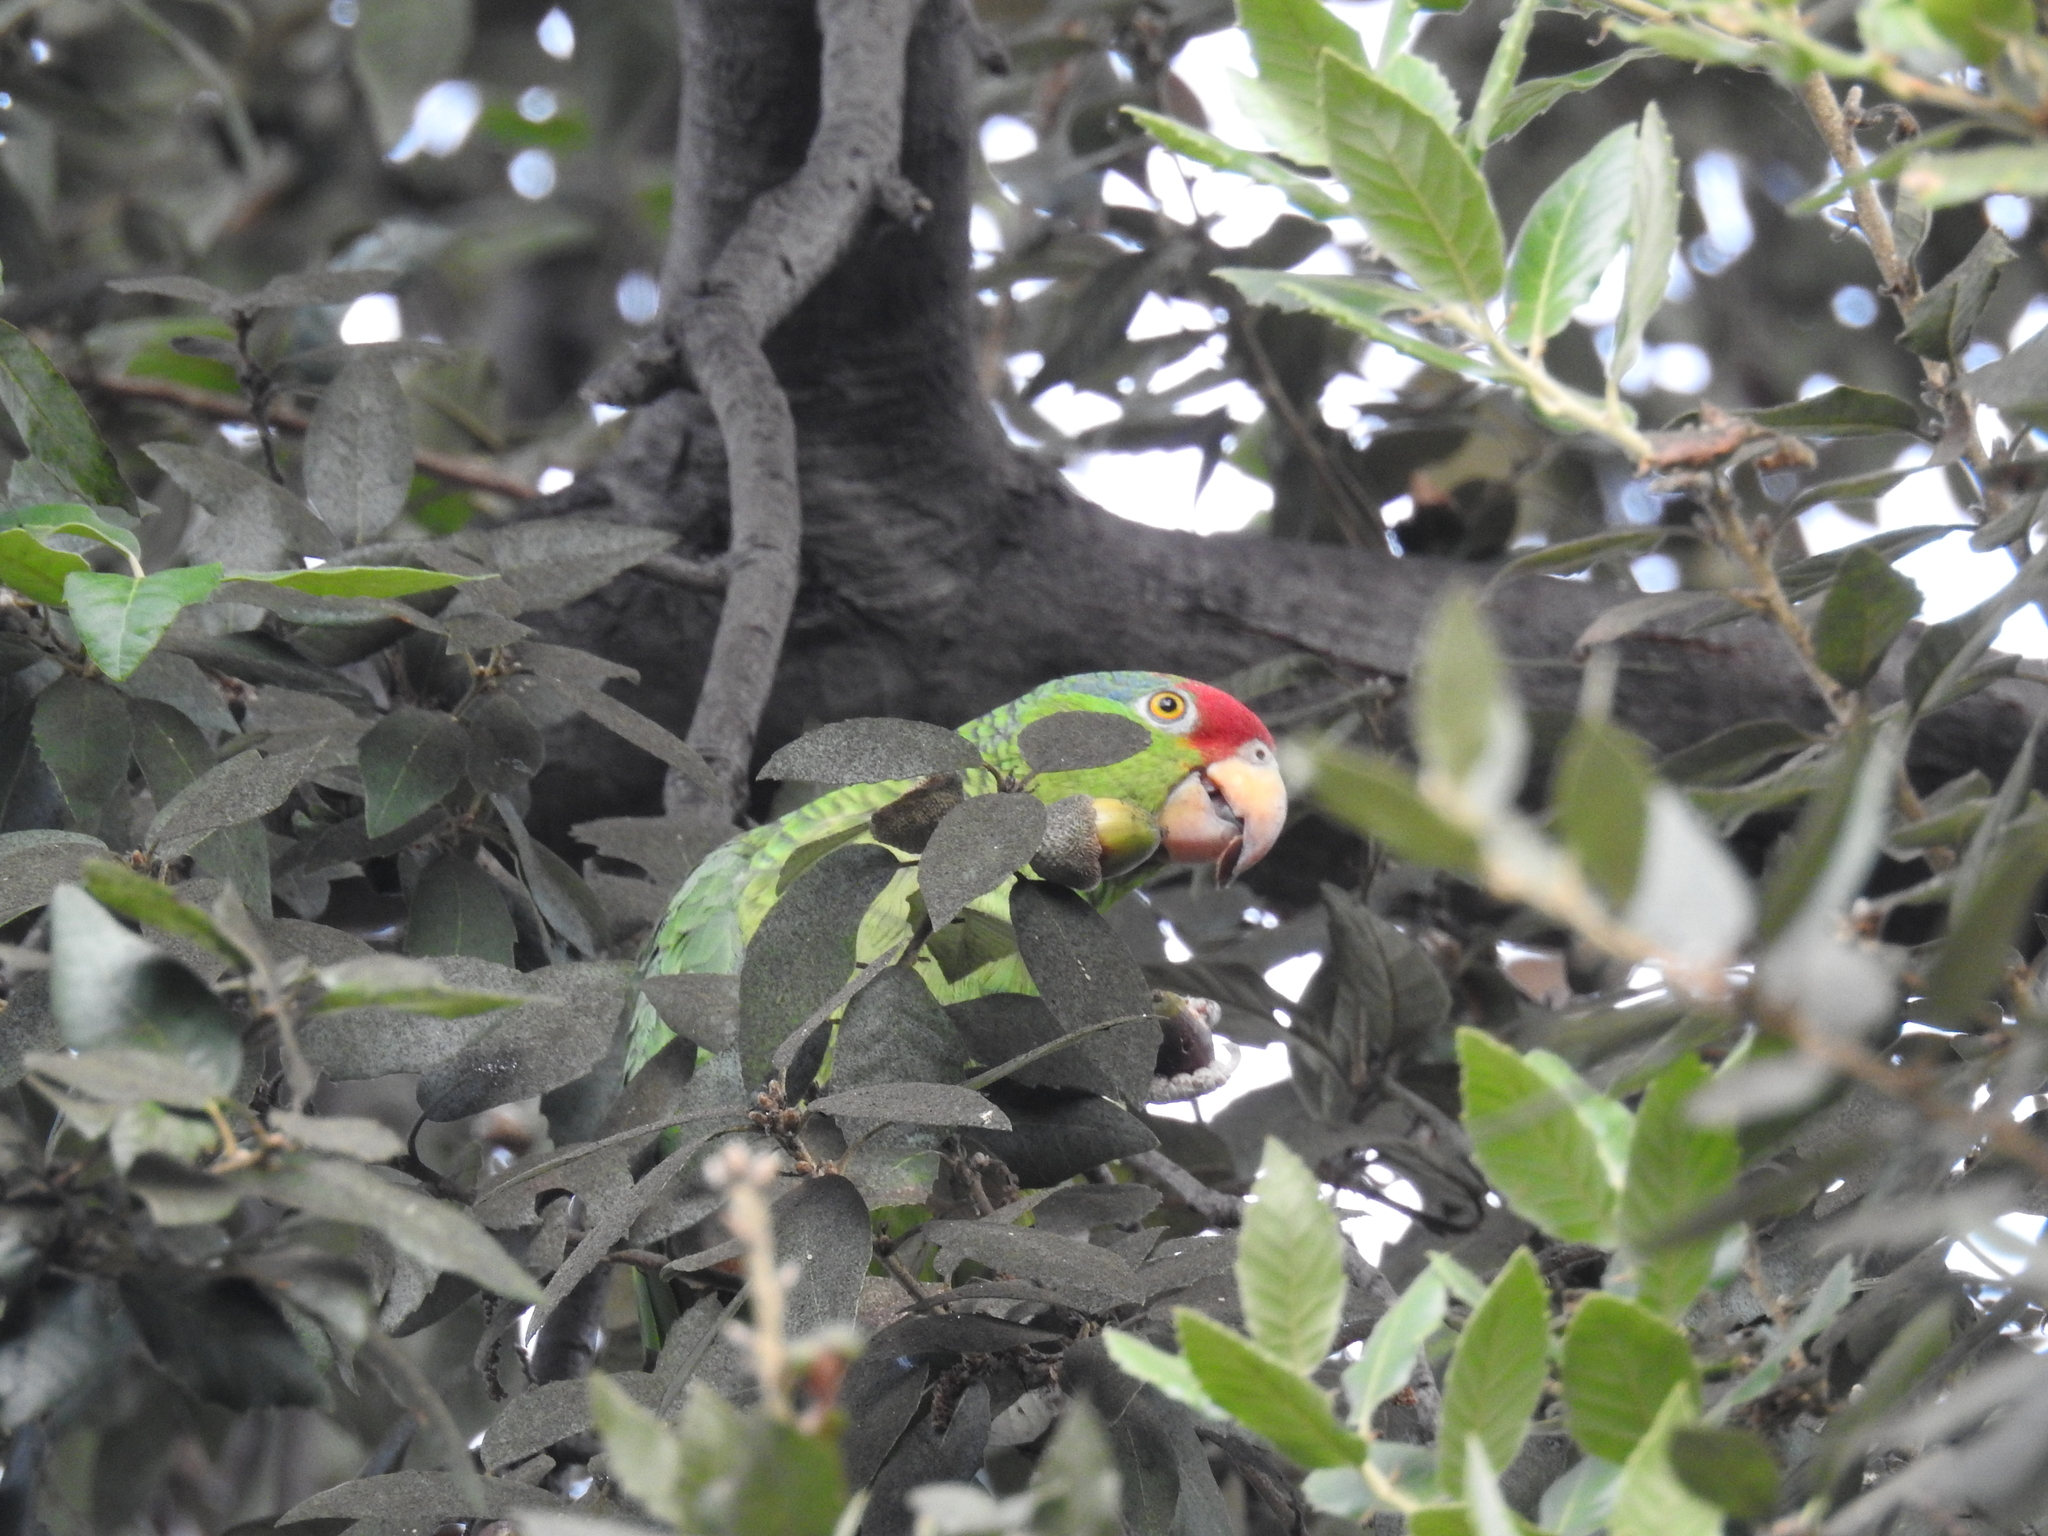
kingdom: Animalia
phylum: Chordata
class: Aves
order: Psittaciformes
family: Psittacidae
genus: Amazona
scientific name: Amazona viridigenalis
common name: Red-crowned amazon
